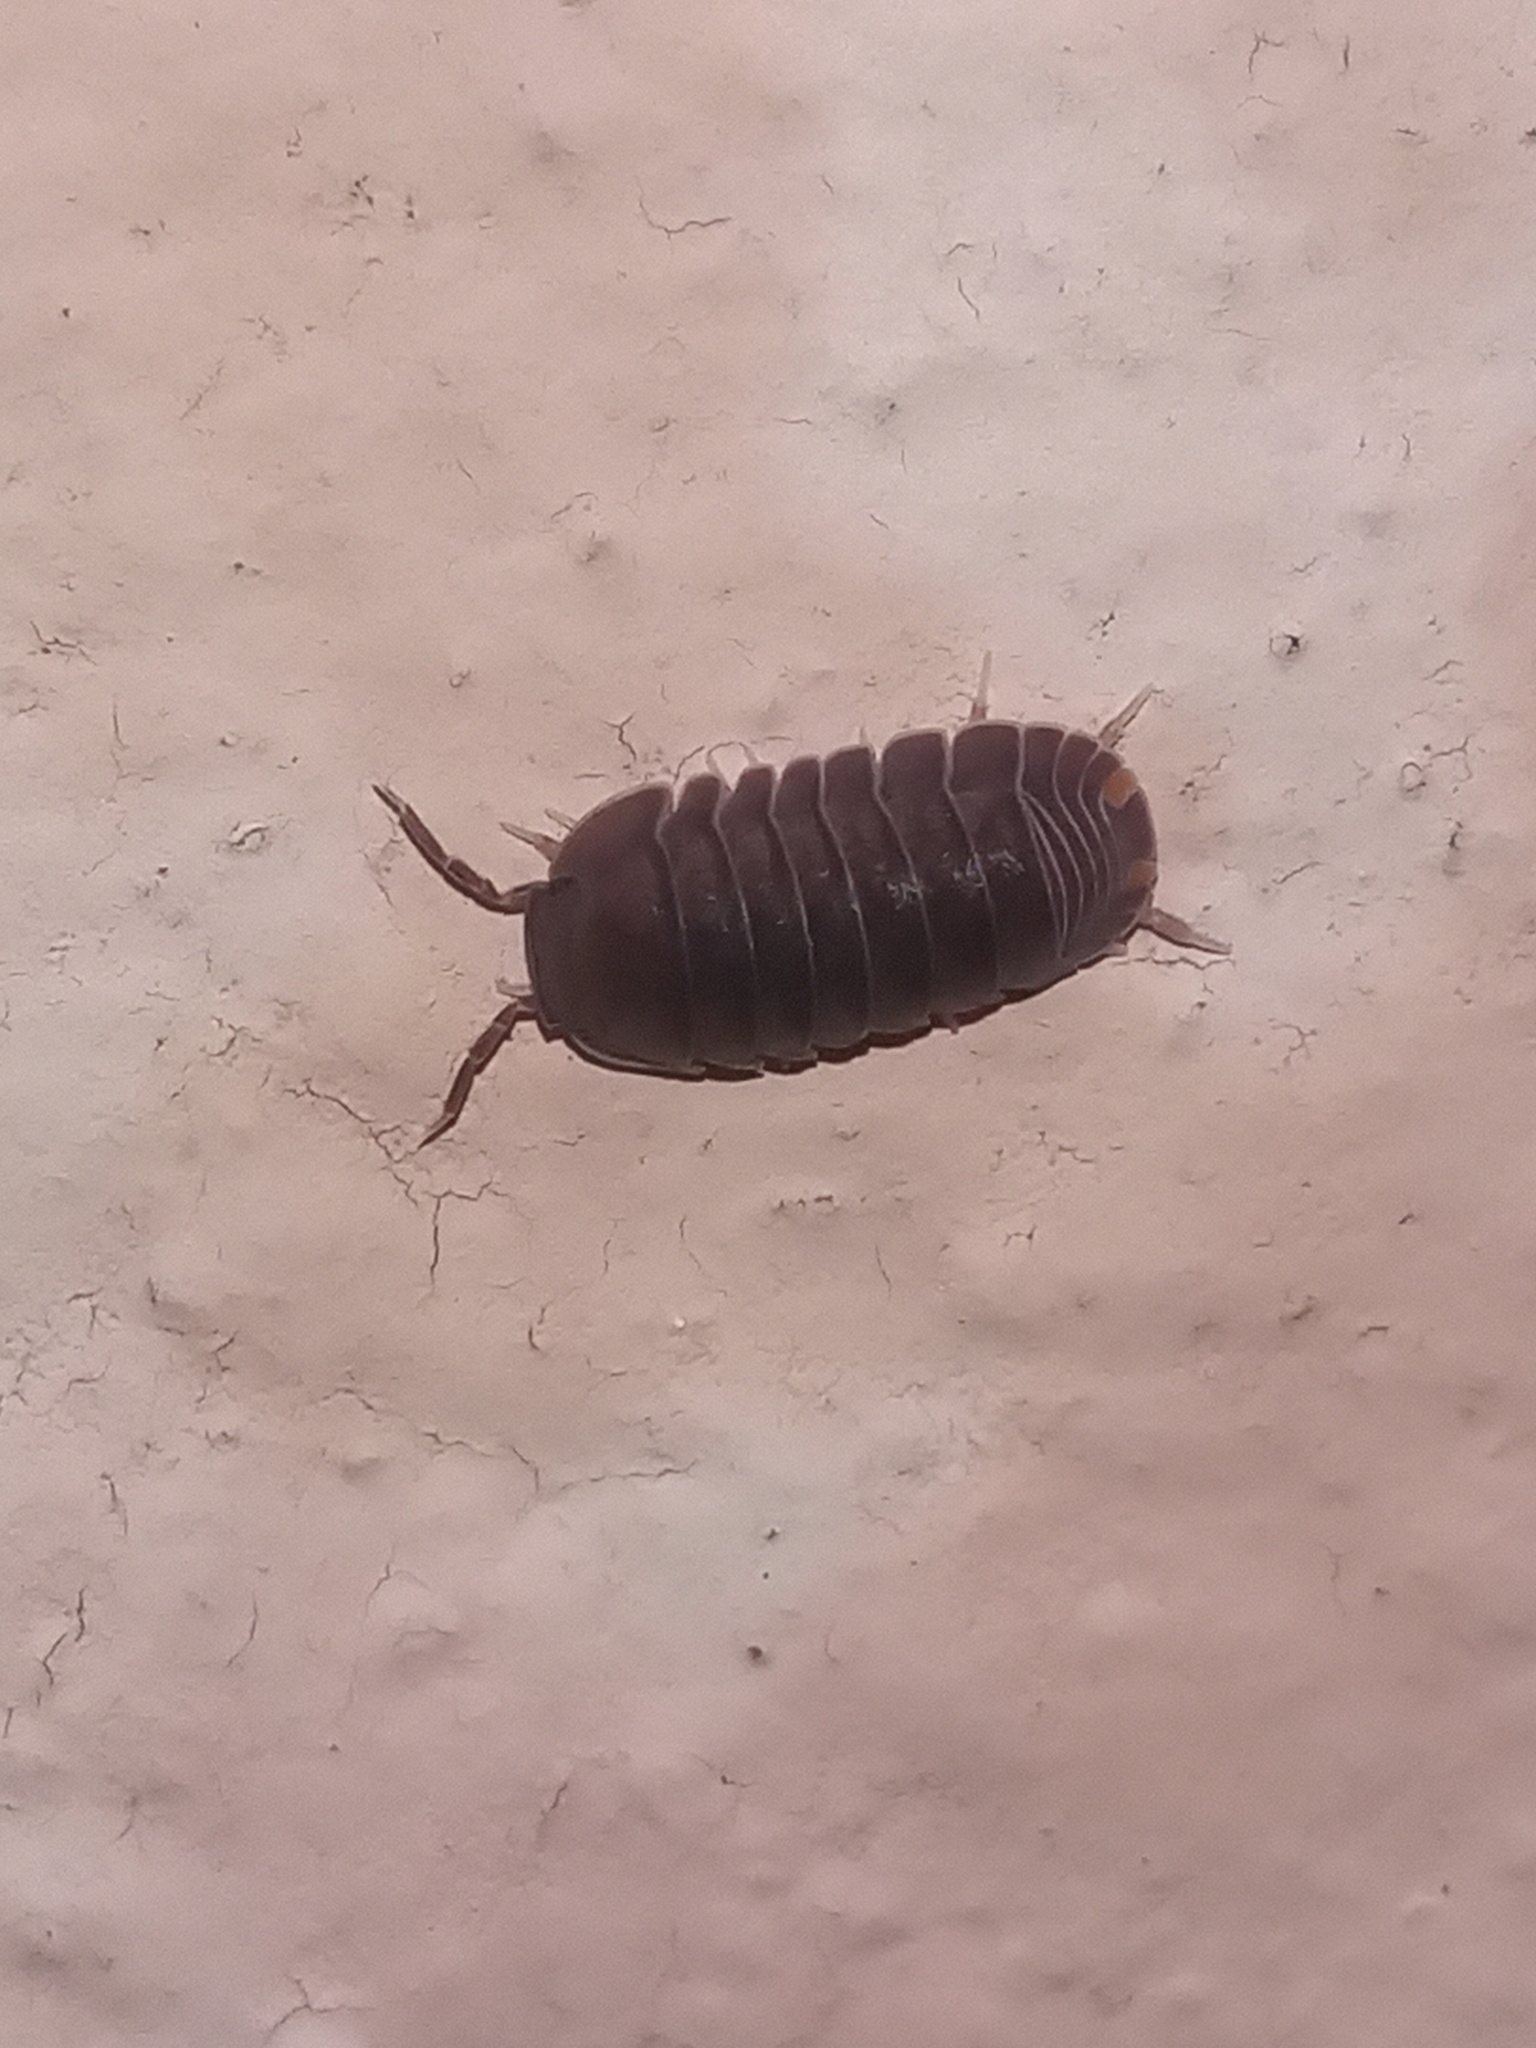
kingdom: Animalia
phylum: Arthropoda
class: Malacostraca
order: Isopoda
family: Armadillidae
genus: Cubaris
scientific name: Cubaris murina
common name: Pillbug
